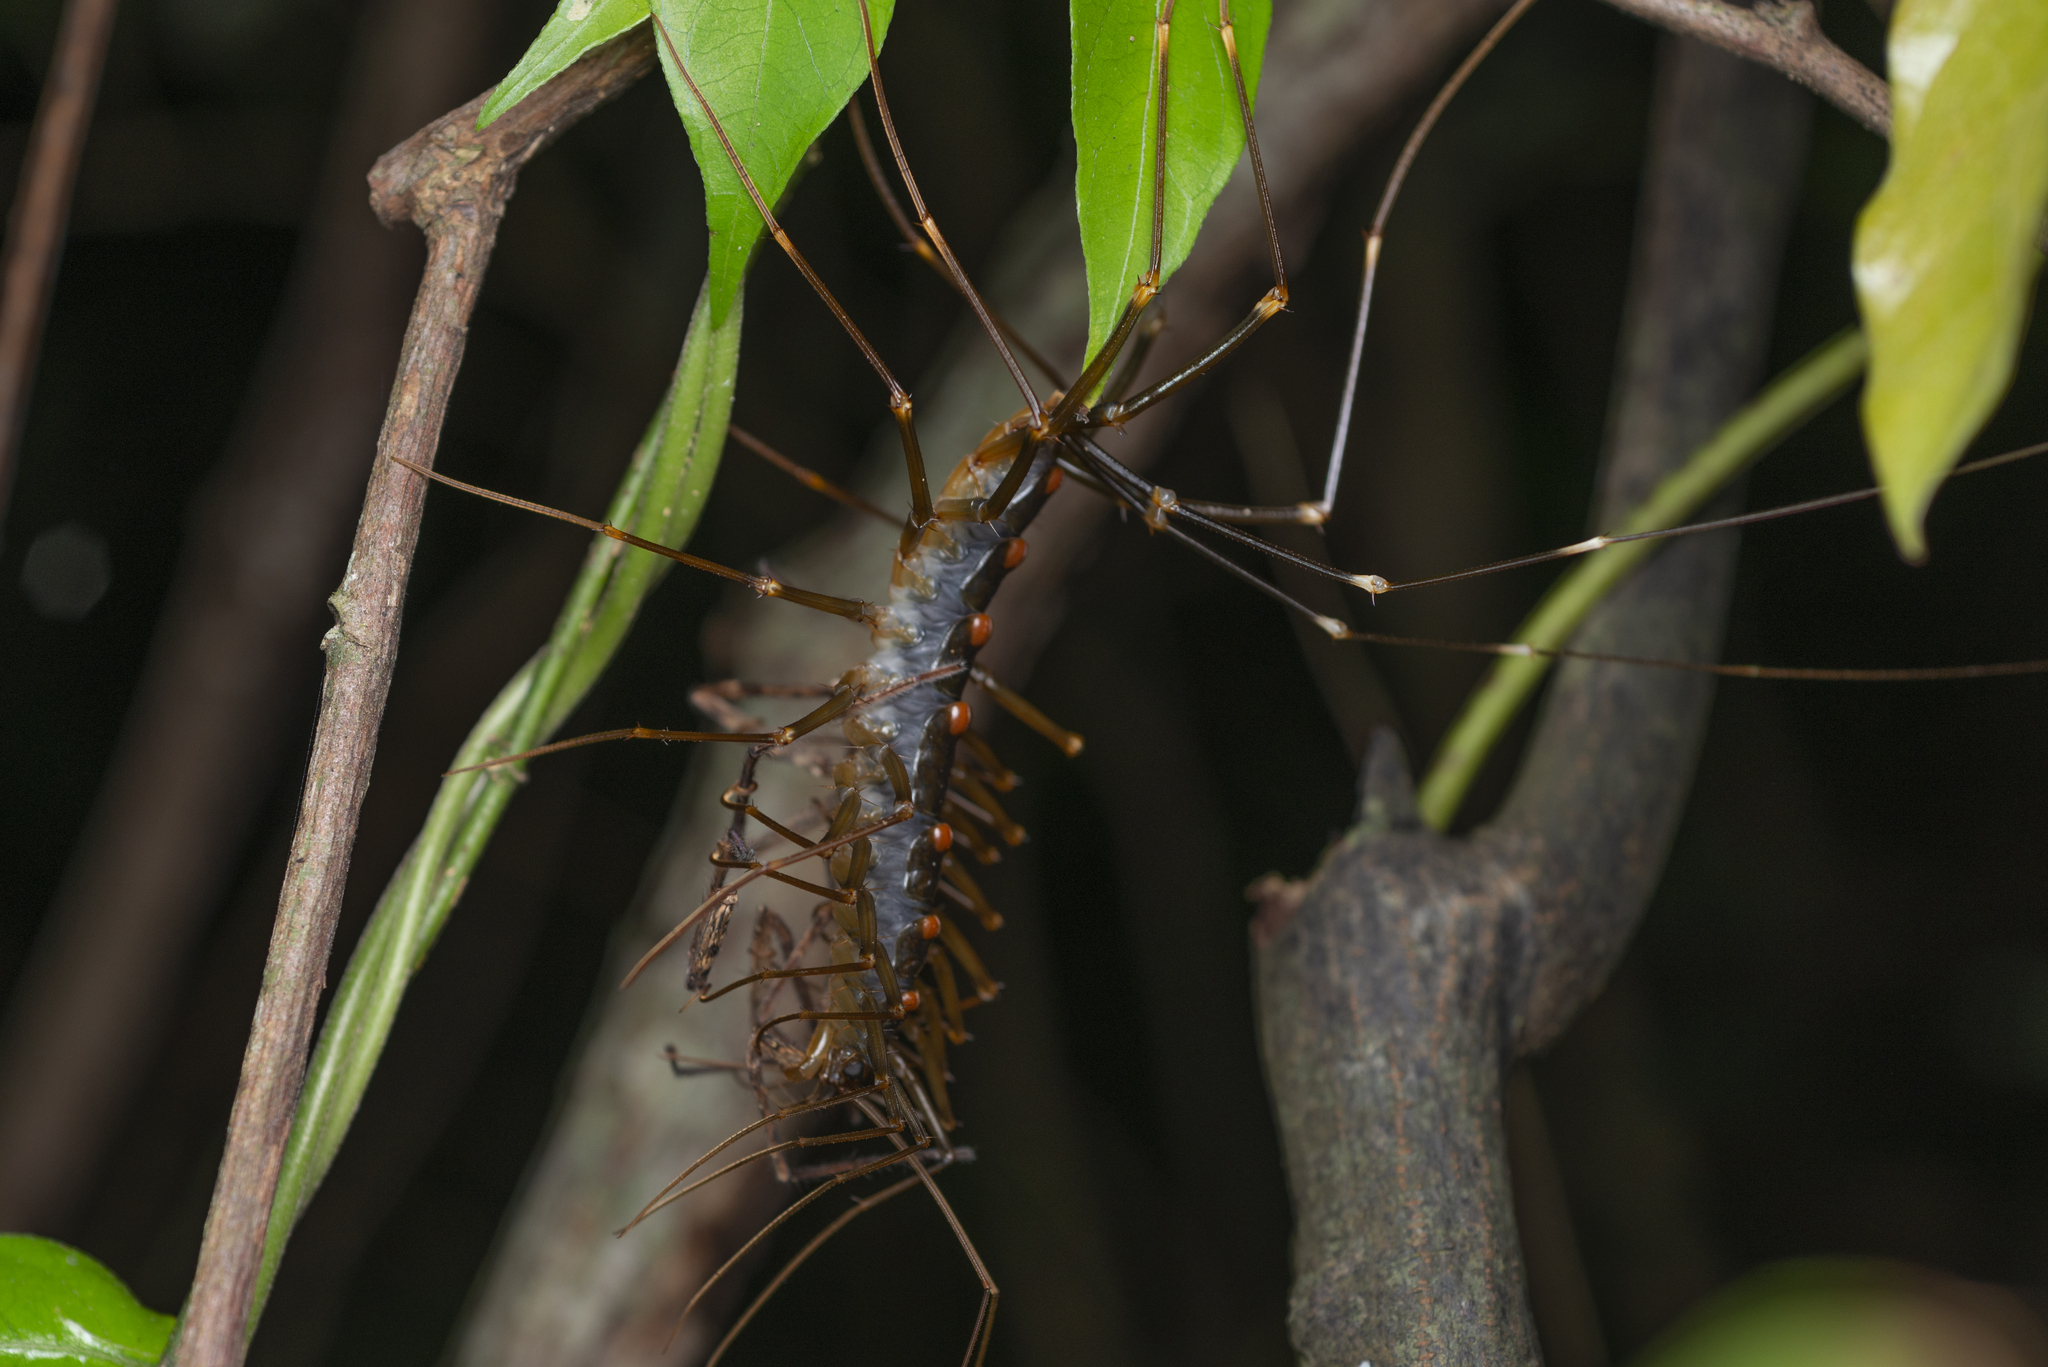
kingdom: Animalia
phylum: Arthropoda
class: Chilopoda
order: Scutigeromorpha
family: Scutigeridae
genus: Thereuopoda
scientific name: Thereuopoda clunifera
